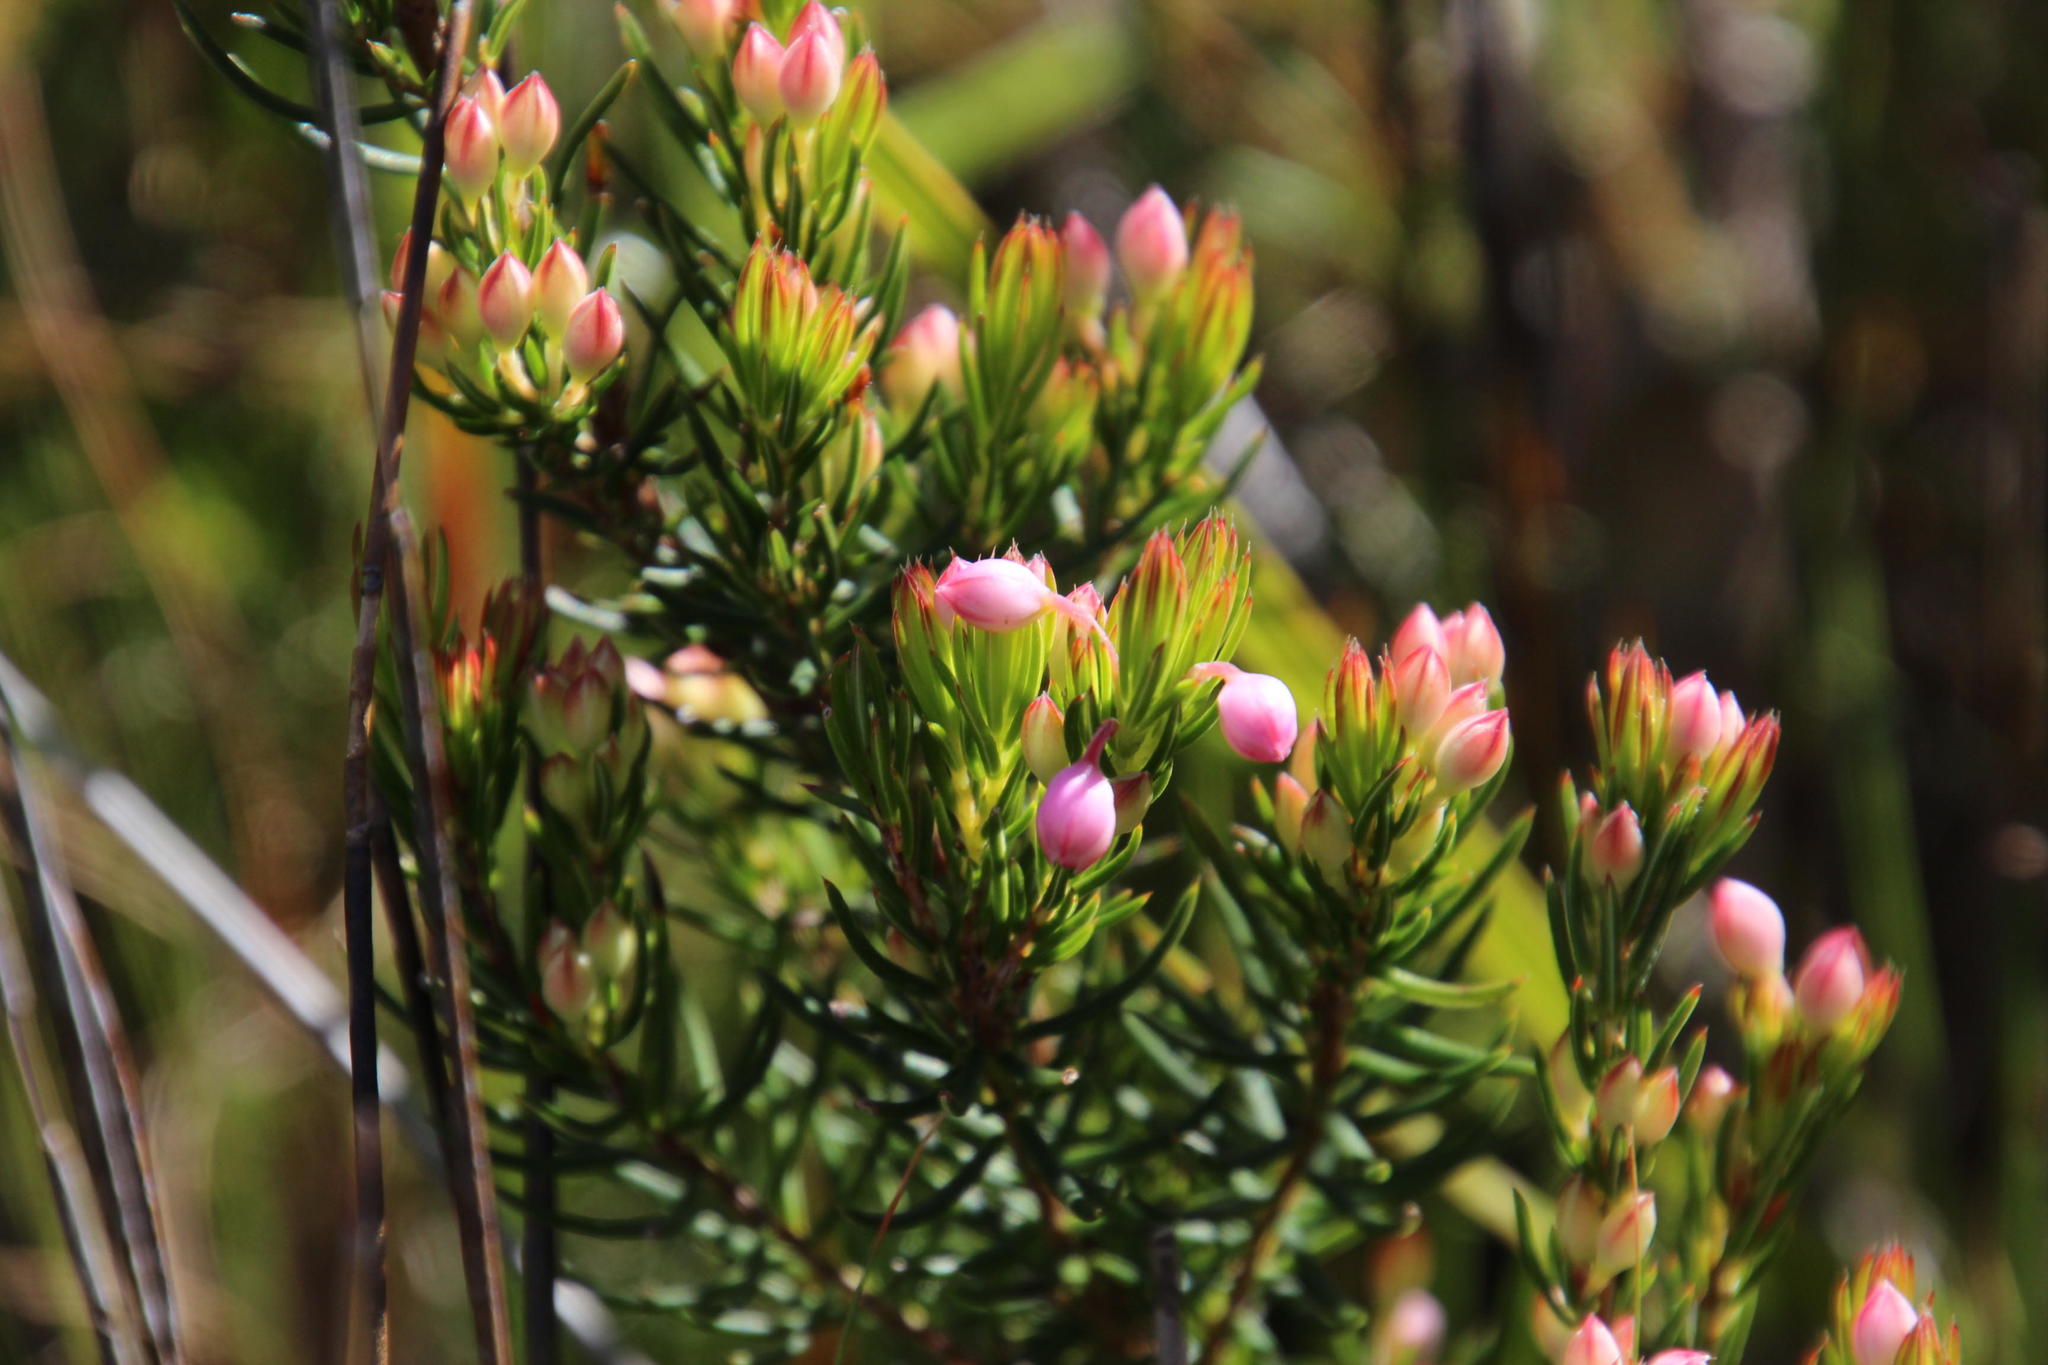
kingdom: Plantae
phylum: Tracheophyta
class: Magnoliopsida
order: Ericales
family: Ericaceae
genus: Erica
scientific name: Erica holosericea
